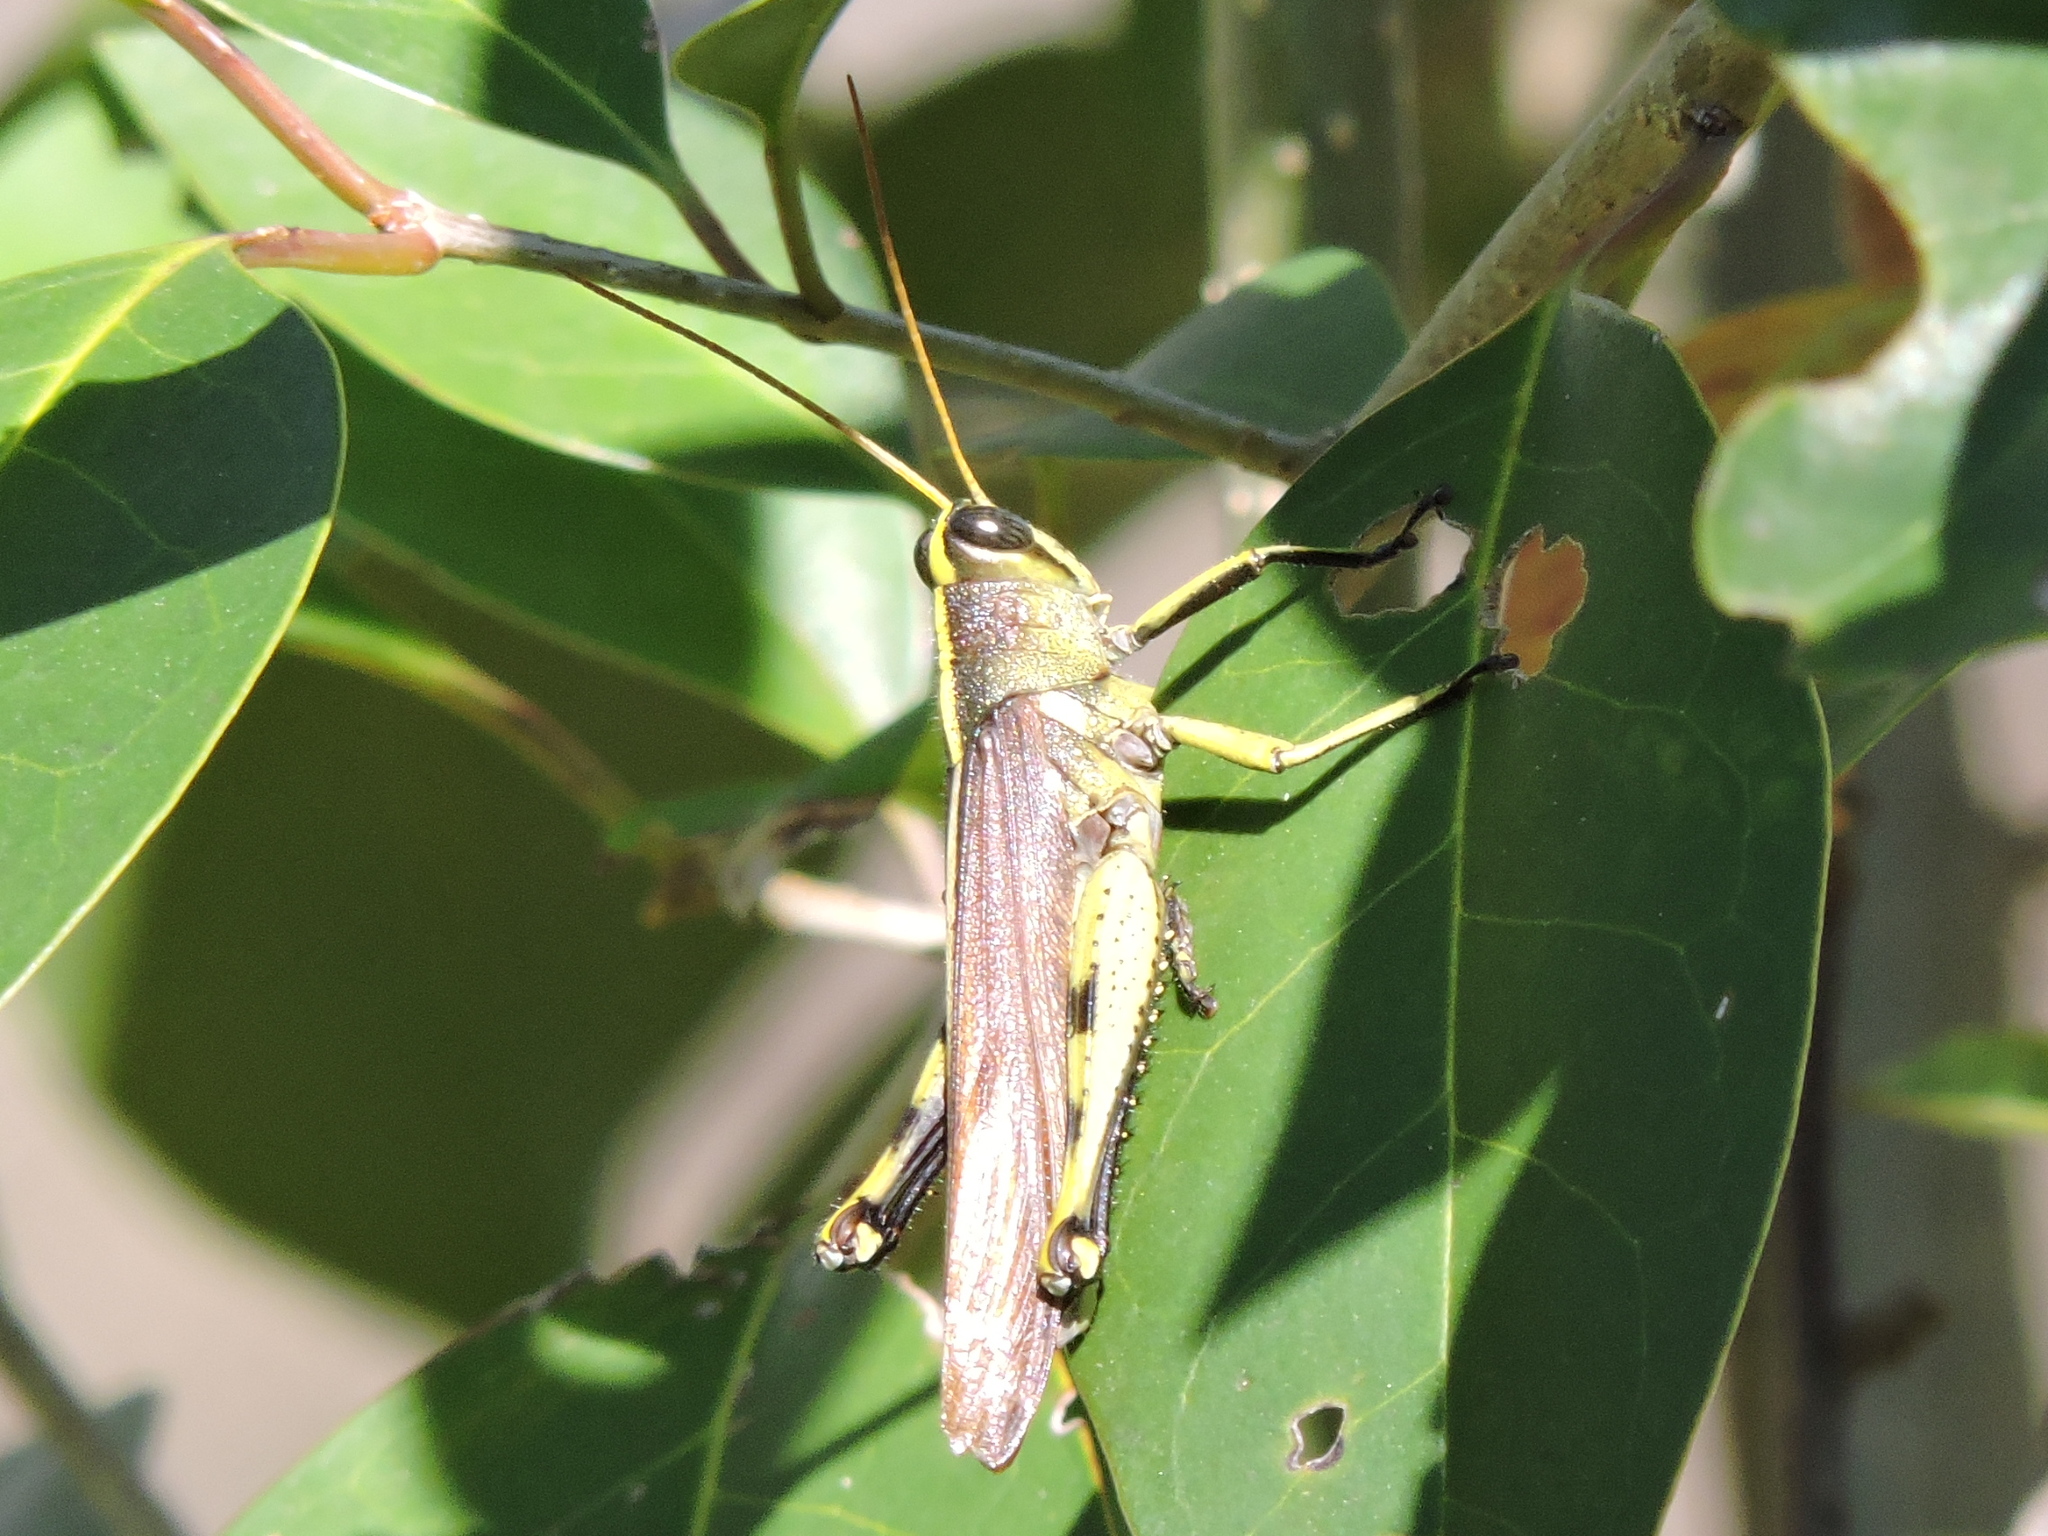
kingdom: Animalia
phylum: Arthropoda
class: Insecta
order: Orthoptera
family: Acrididae
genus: Schistocerca
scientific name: Schistocerca obscura
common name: Obscure bird grasshopper
